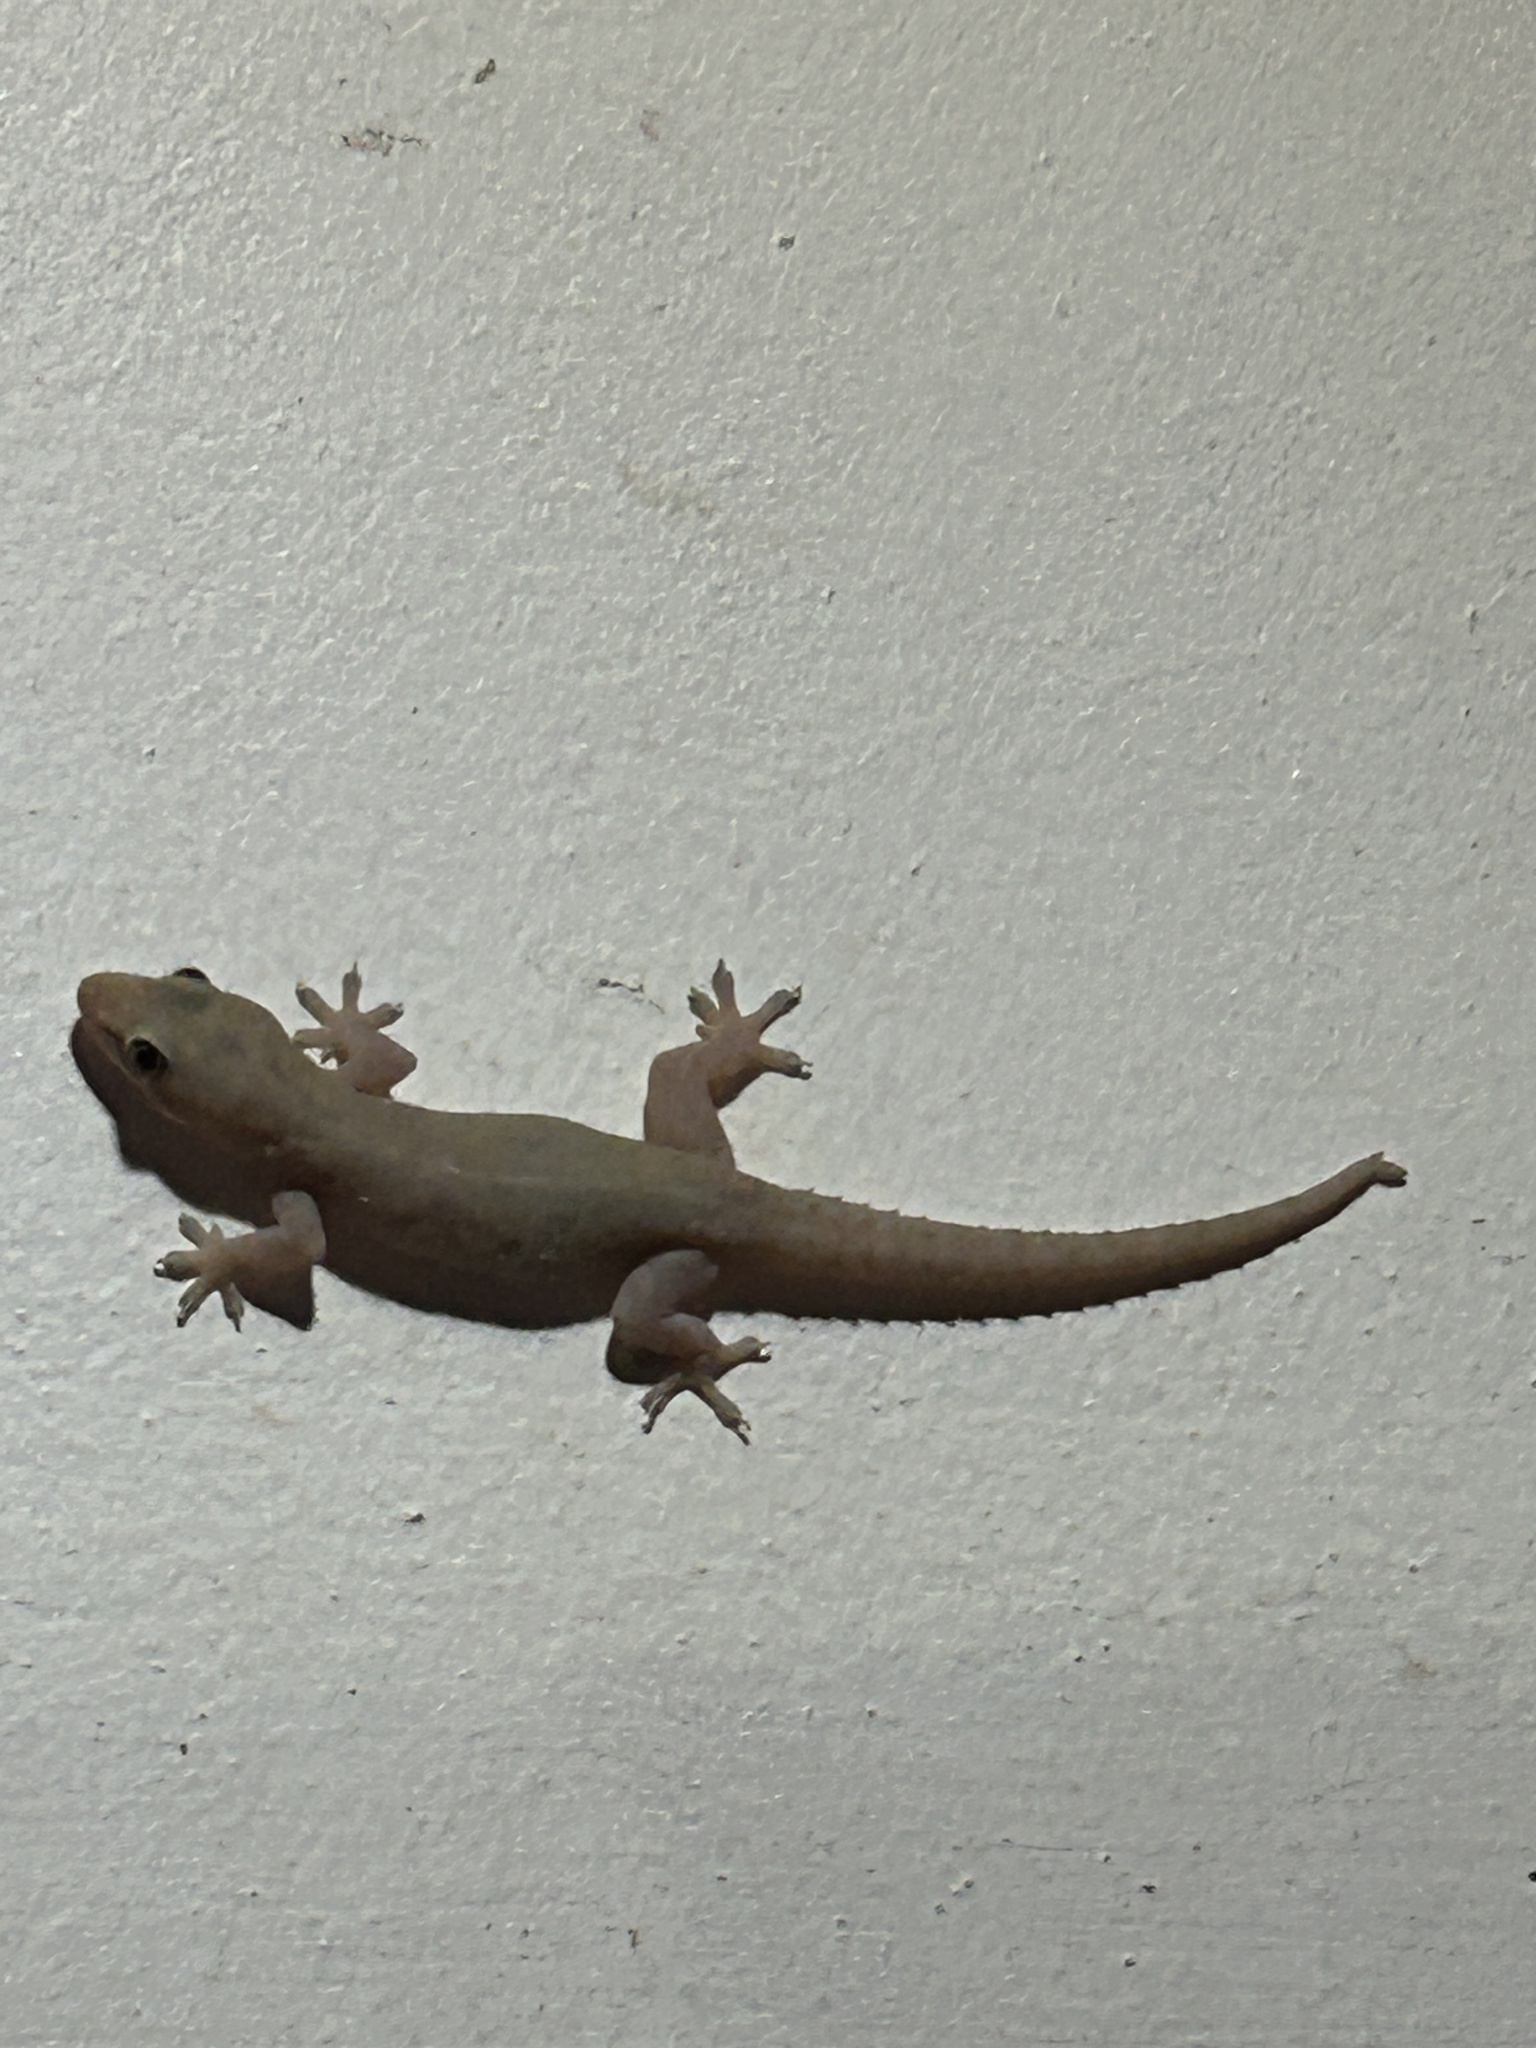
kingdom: Animalia
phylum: Chordata
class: Squamata
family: Gekkonidae
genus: Hemidactylus
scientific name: Hemidactylus frenatus
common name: Common house gecko
